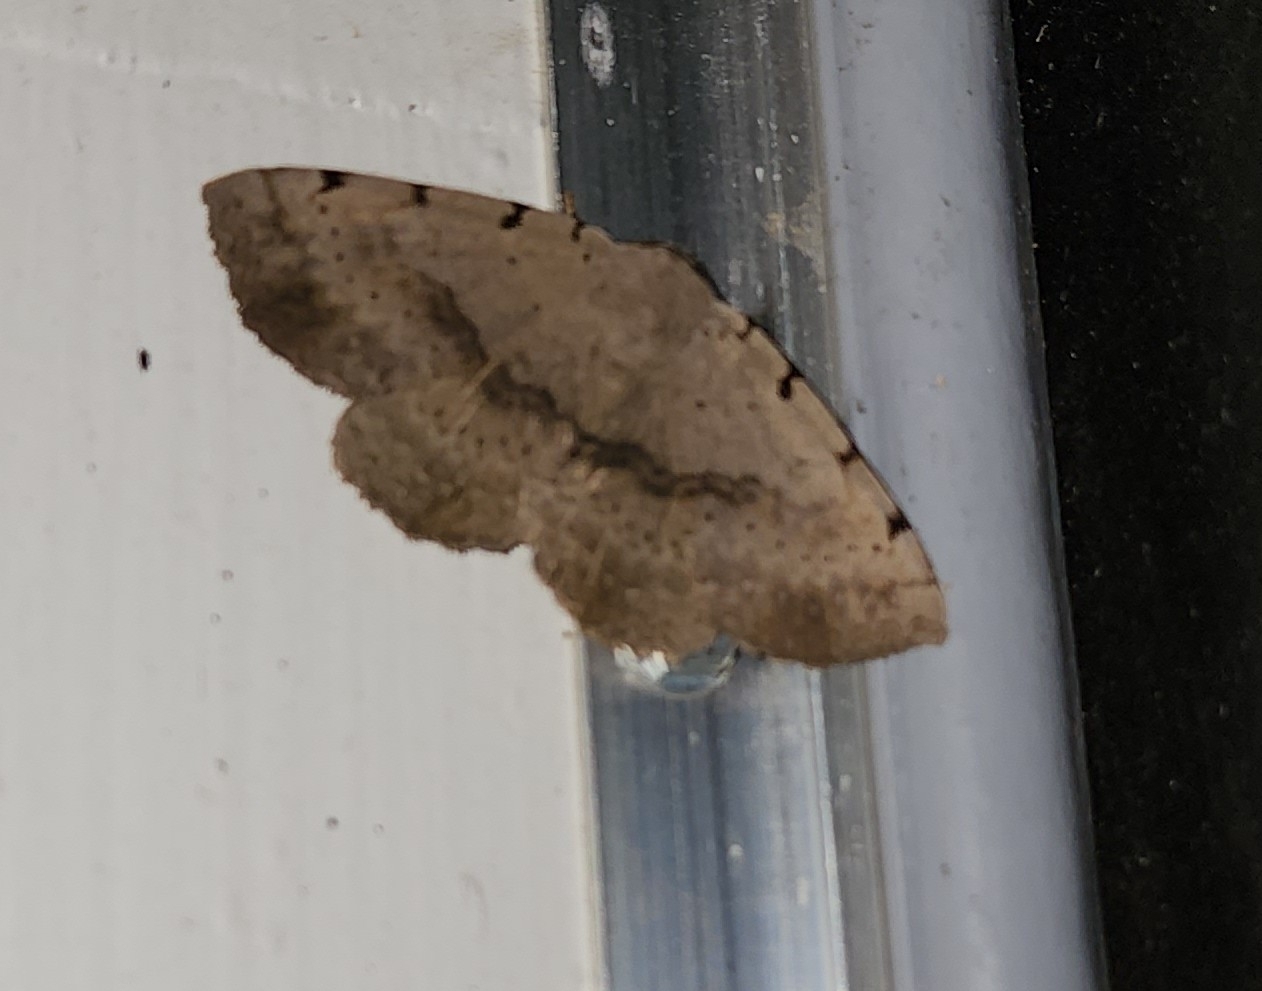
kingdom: Animalia
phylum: Arthropoda
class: Insecta
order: Lepidoptera
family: Erebidae
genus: Spiloloma
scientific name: Spiloloma lunilinea
